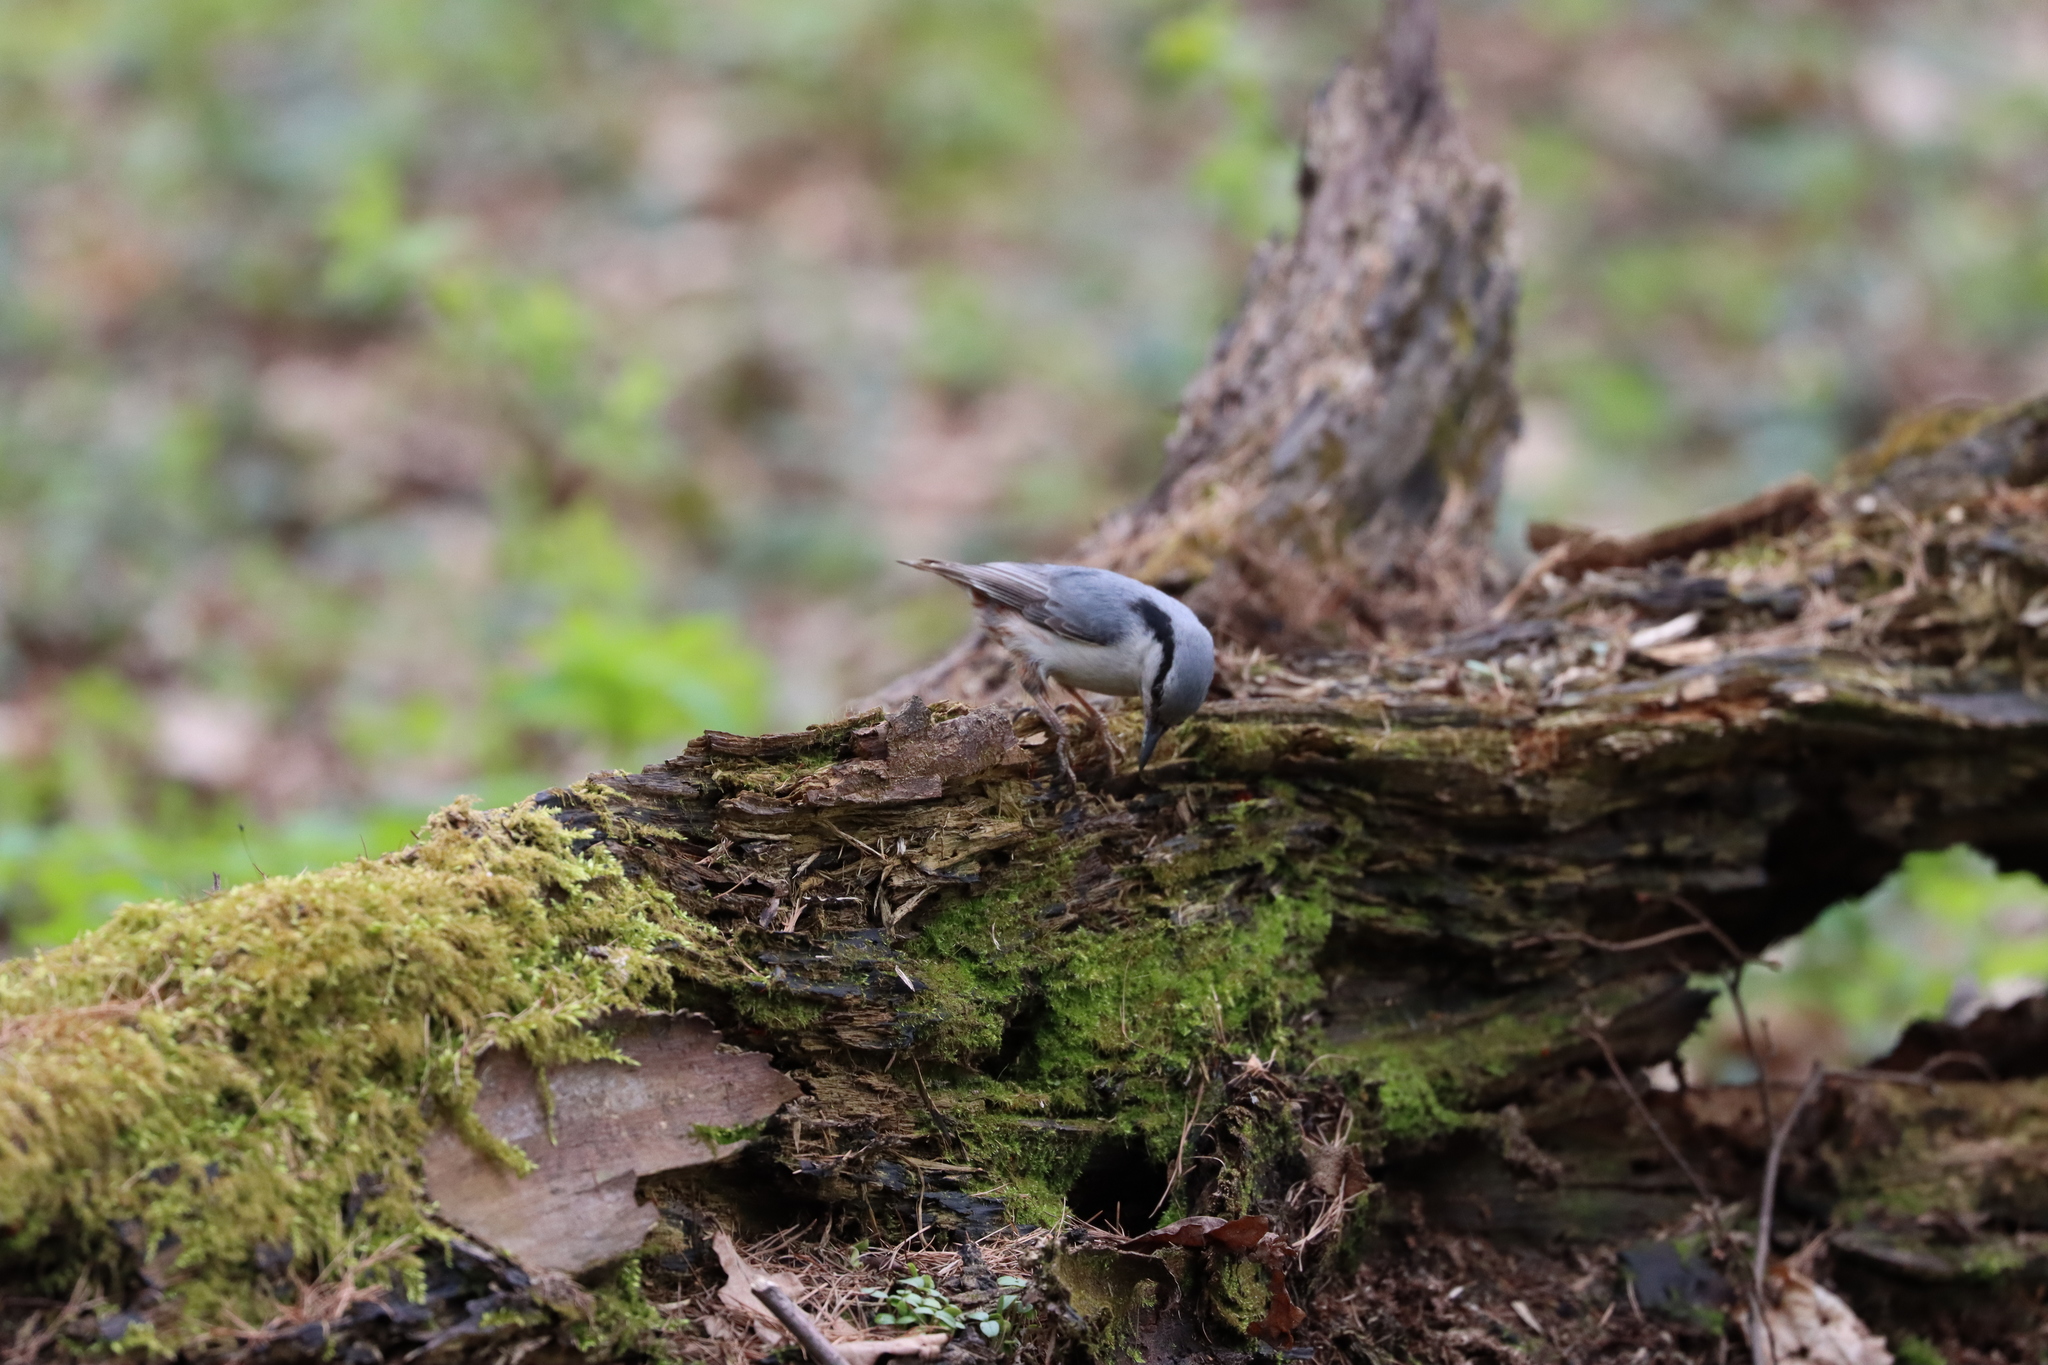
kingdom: Animalia
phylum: Chordata
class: Aves
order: Passeriformes
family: Sittidae
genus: Sitta
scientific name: Sitta europaea
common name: Eurasian nuthatch
